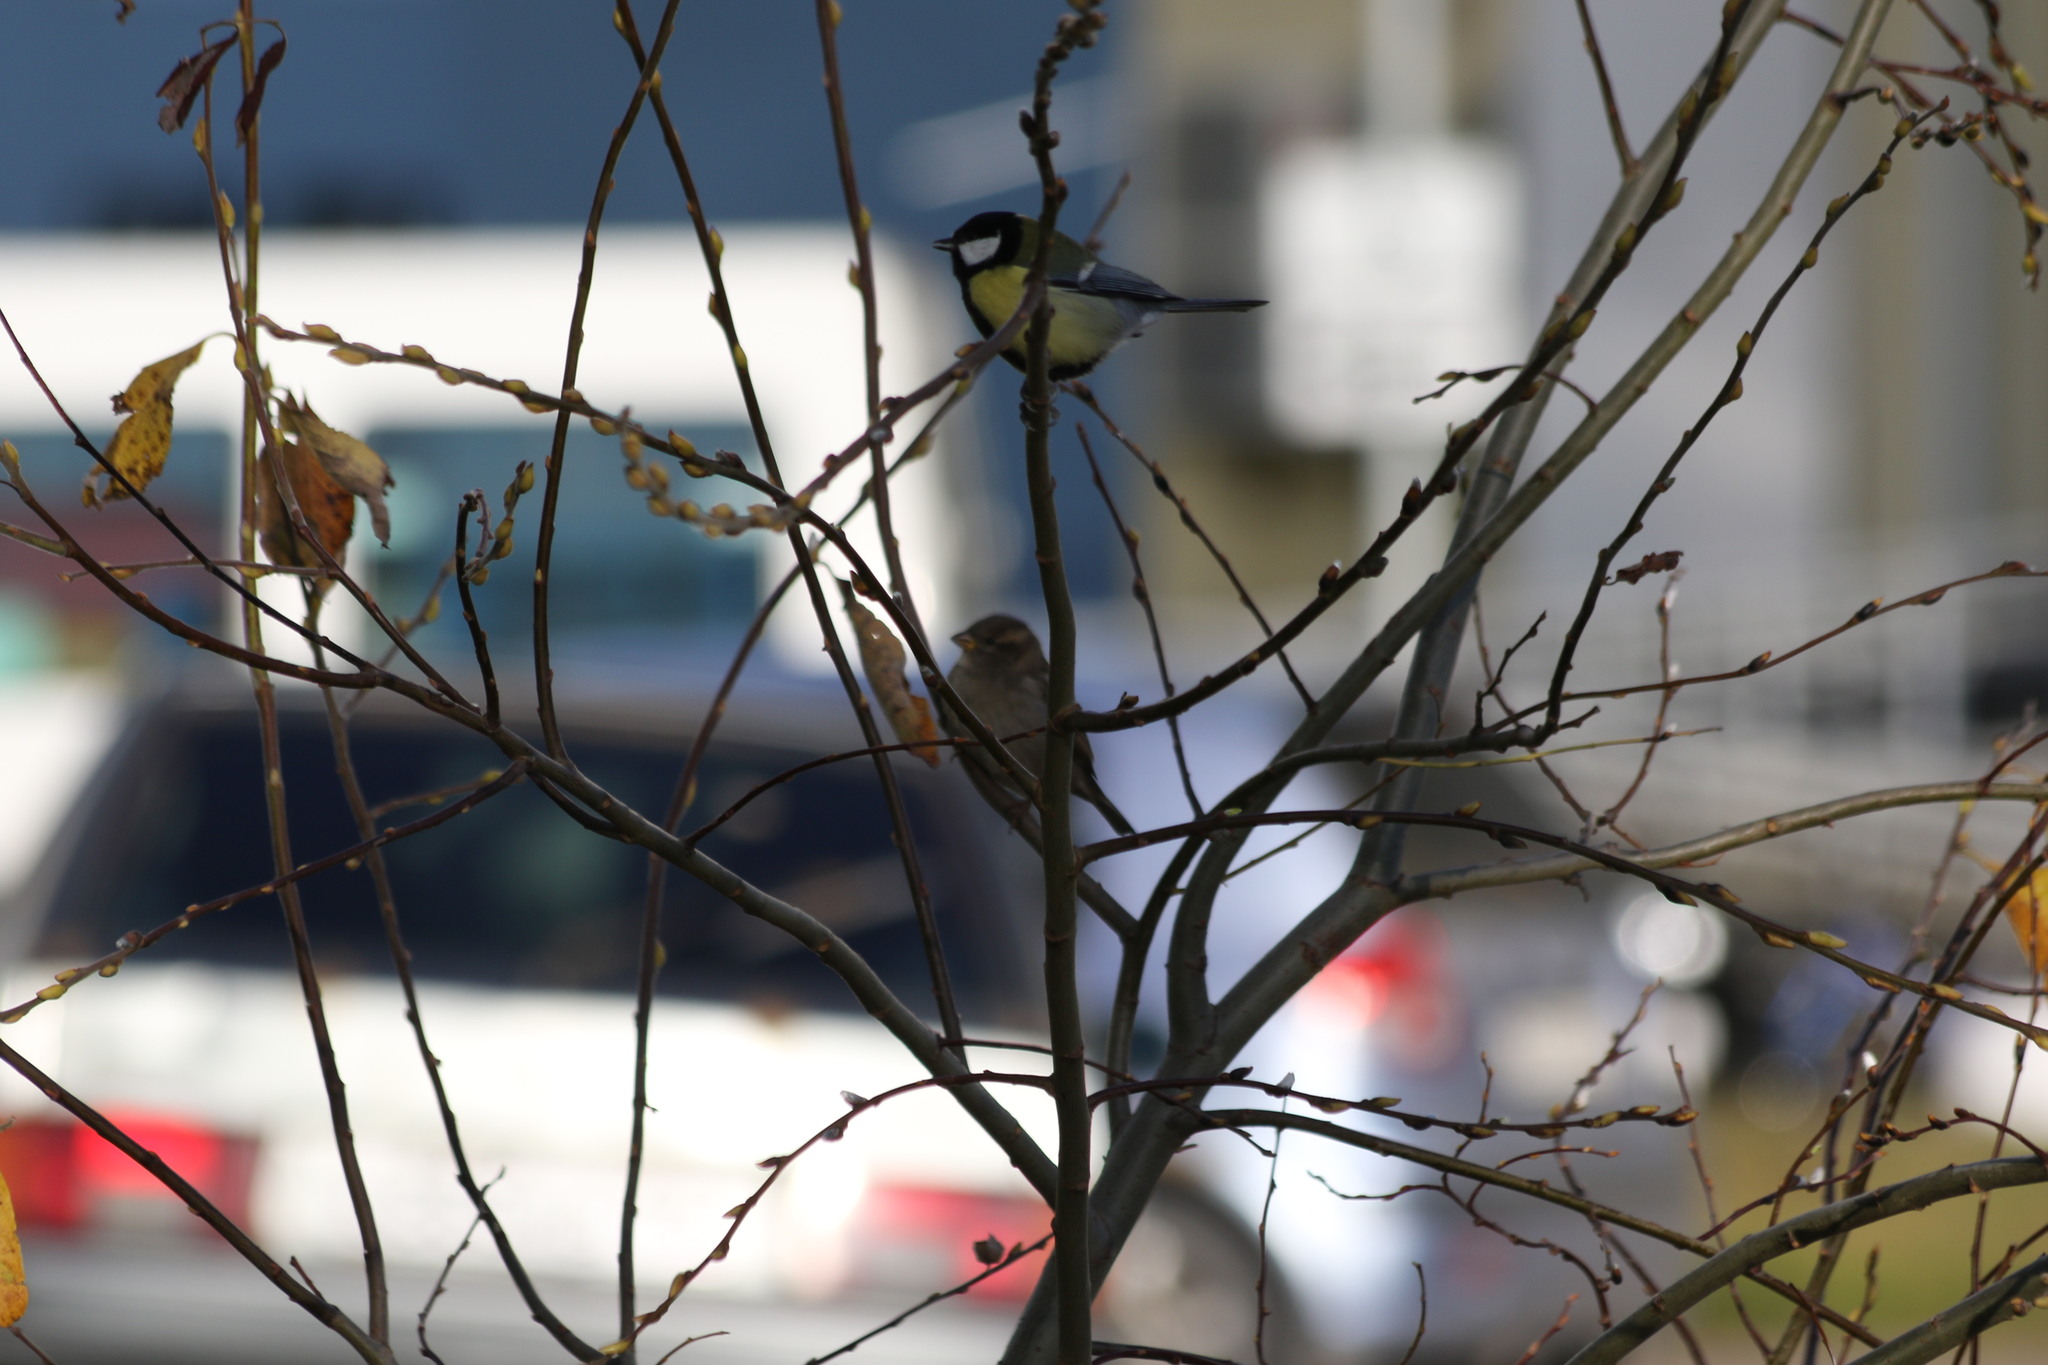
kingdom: Animalia
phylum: Chordata
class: Aves
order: Passeriformes
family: Paridae
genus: Parus
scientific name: Parus major
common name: Great tit
